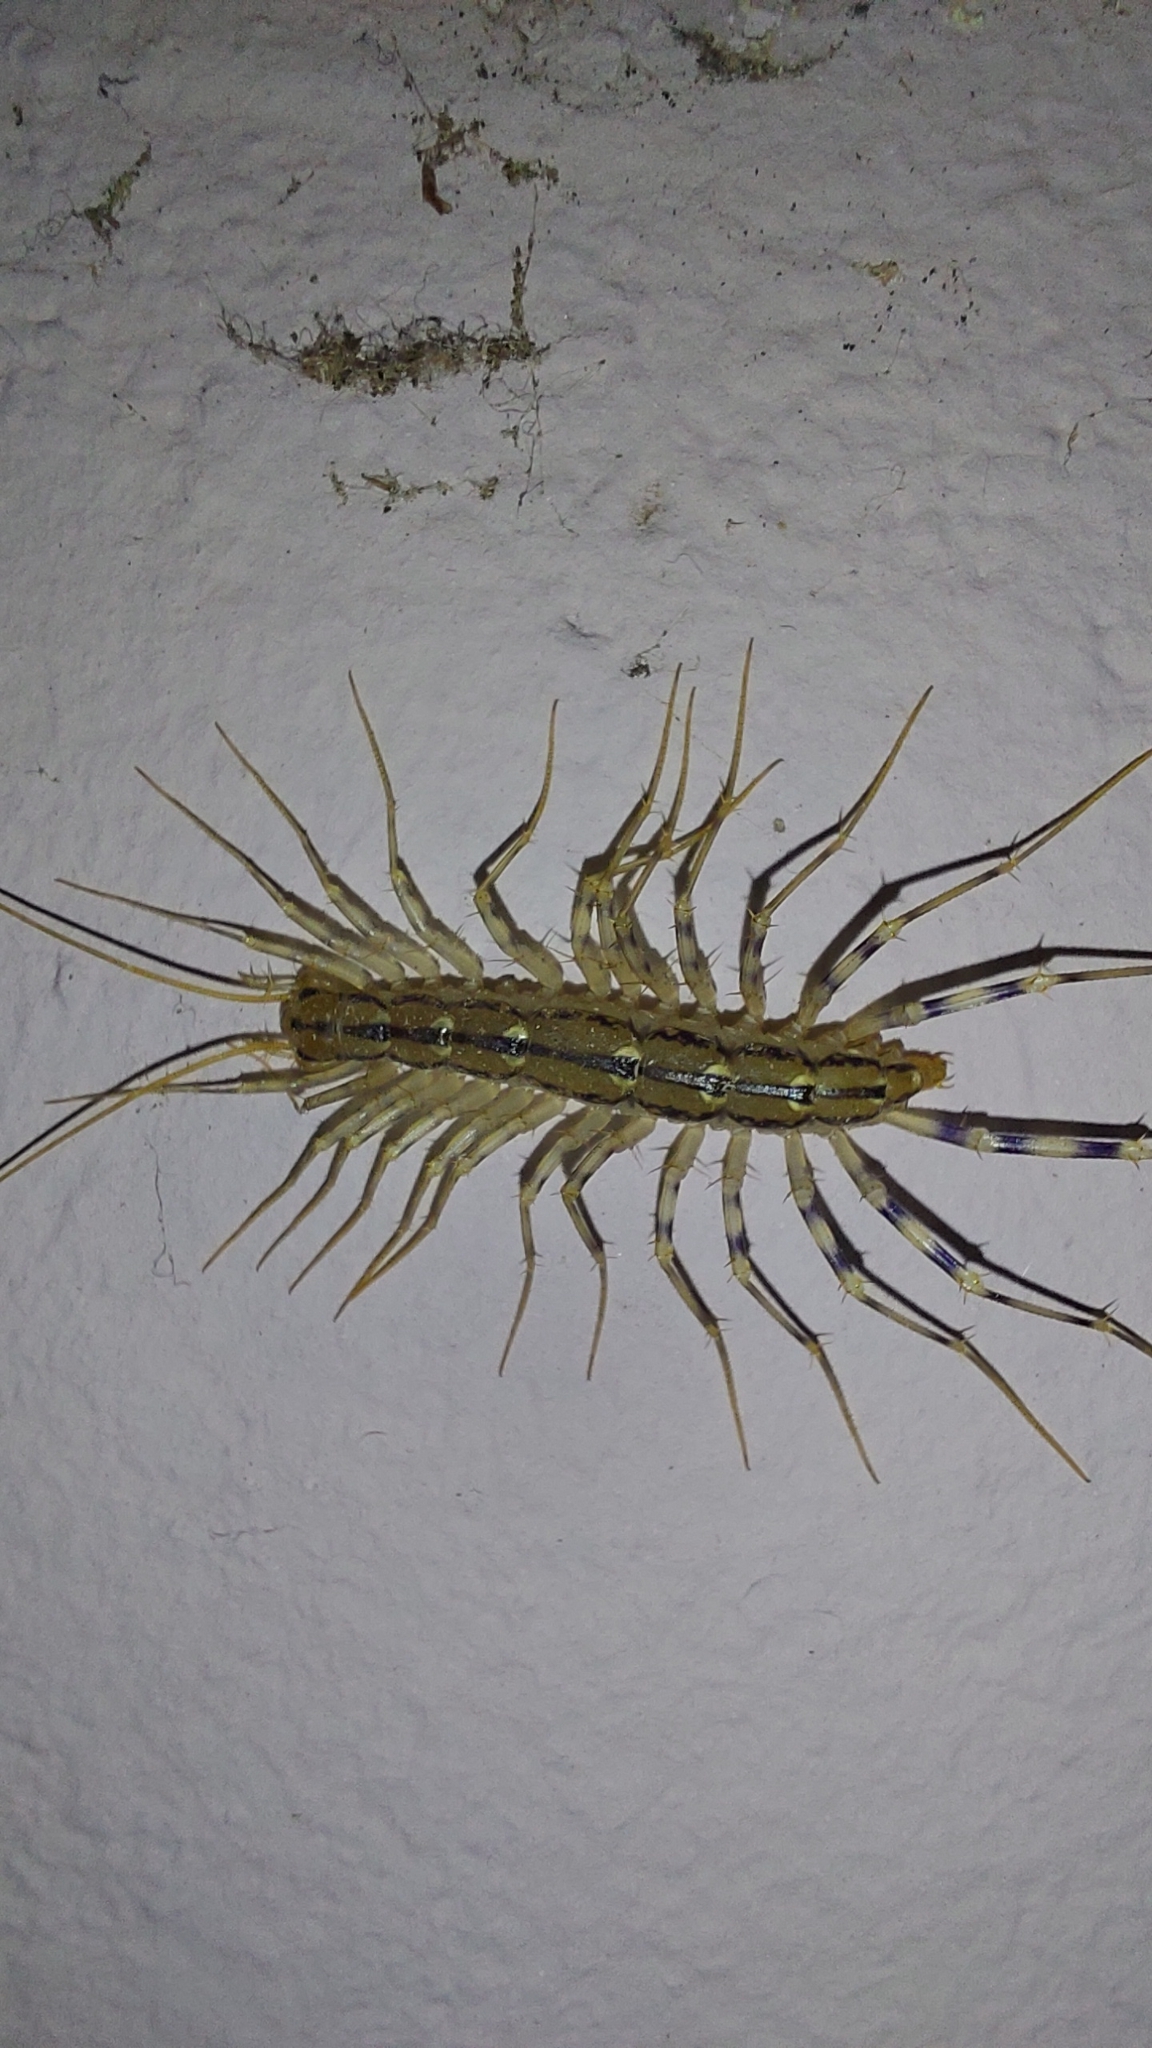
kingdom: Animalia
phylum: Arthropoda
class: Chilopoda
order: Scutigeromorpha
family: Scutigeridae
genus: Scutigera
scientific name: Scutigera coleoptrata
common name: House centipede
